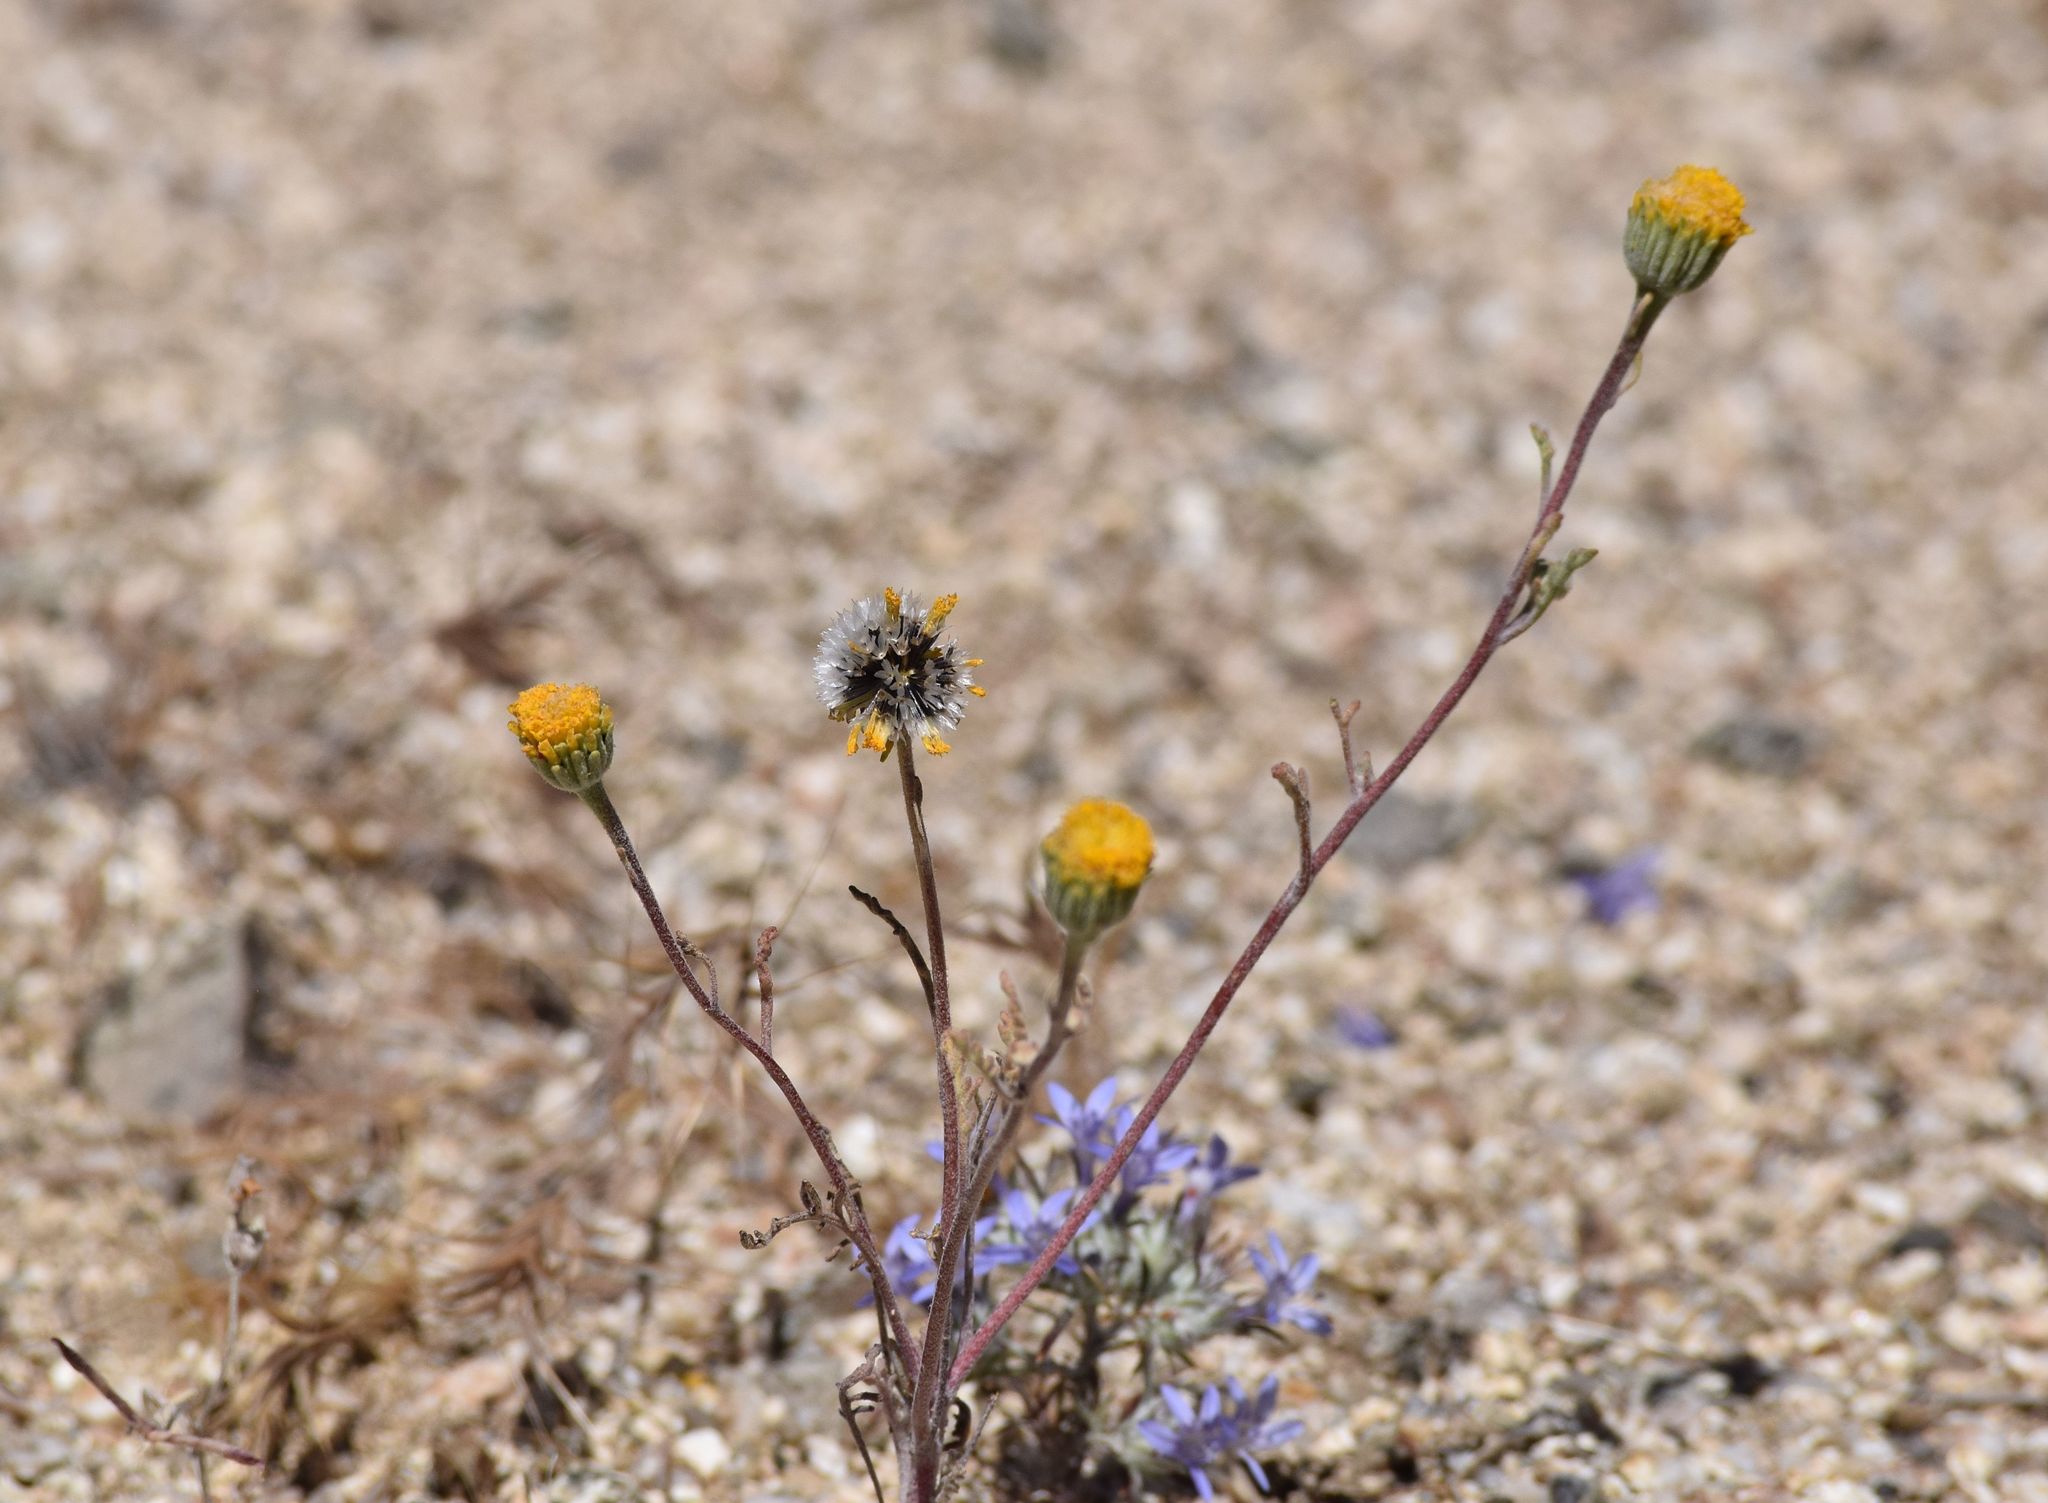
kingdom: Plantae
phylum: Tracheophyta
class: Magnoliopsida
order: Asterales
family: Asteraceae
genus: Chaenactis
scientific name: Chaenactis glabriuscula
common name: Yellow pincushion
